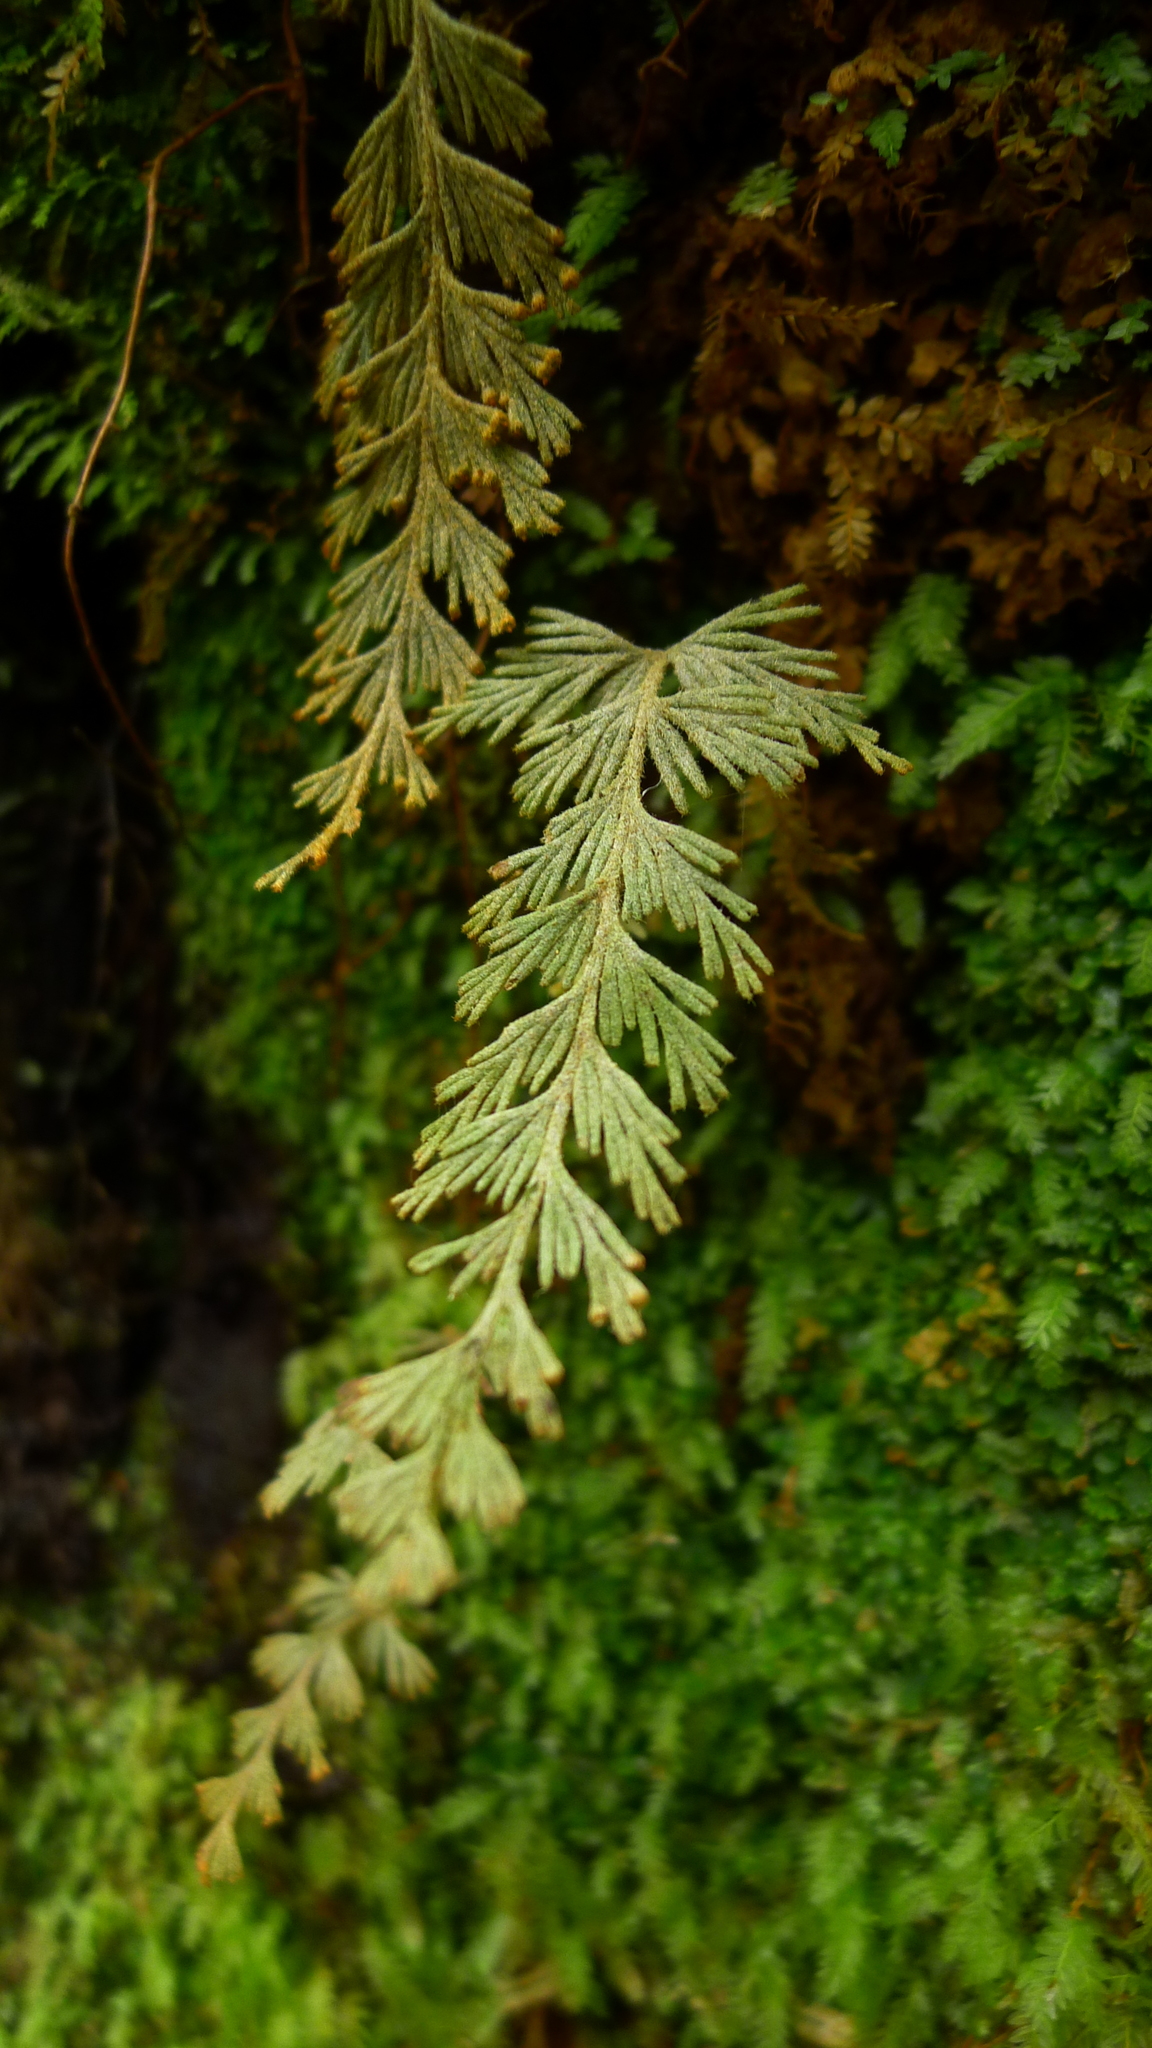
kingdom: Plantae
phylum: Tracheophyta
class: Polypodiopsida
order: Hymenophyllales
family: Hymenophyllaceae
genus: Hymenophyllum
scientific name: Hymenophyllum malingii
